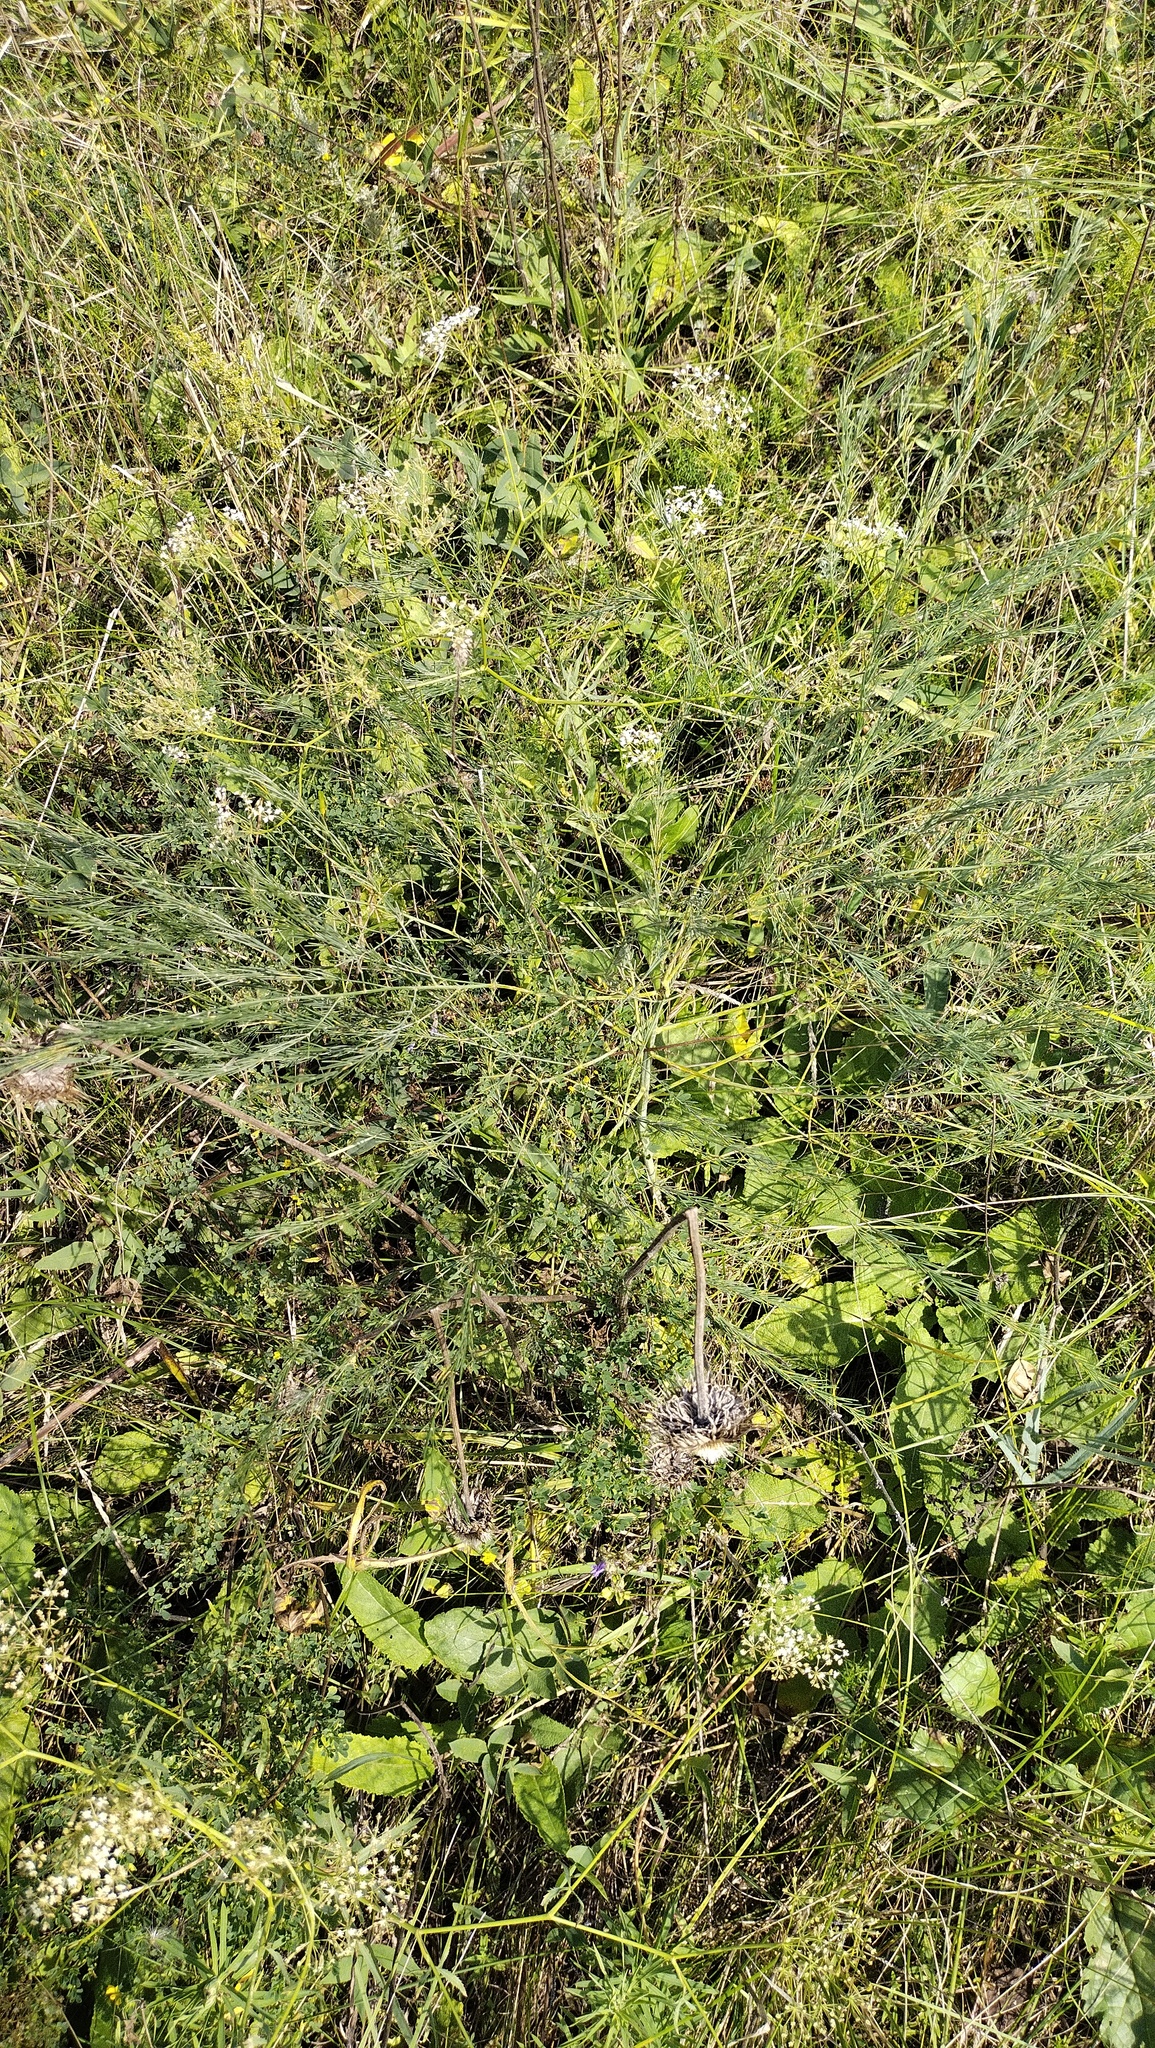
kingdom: Plantae
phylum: Tracheophyta
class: Liliopsida
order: Asparagales
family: Asparagaceae
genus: Asparagus
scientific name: Asparagus officinalis
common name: Garden asparagus
